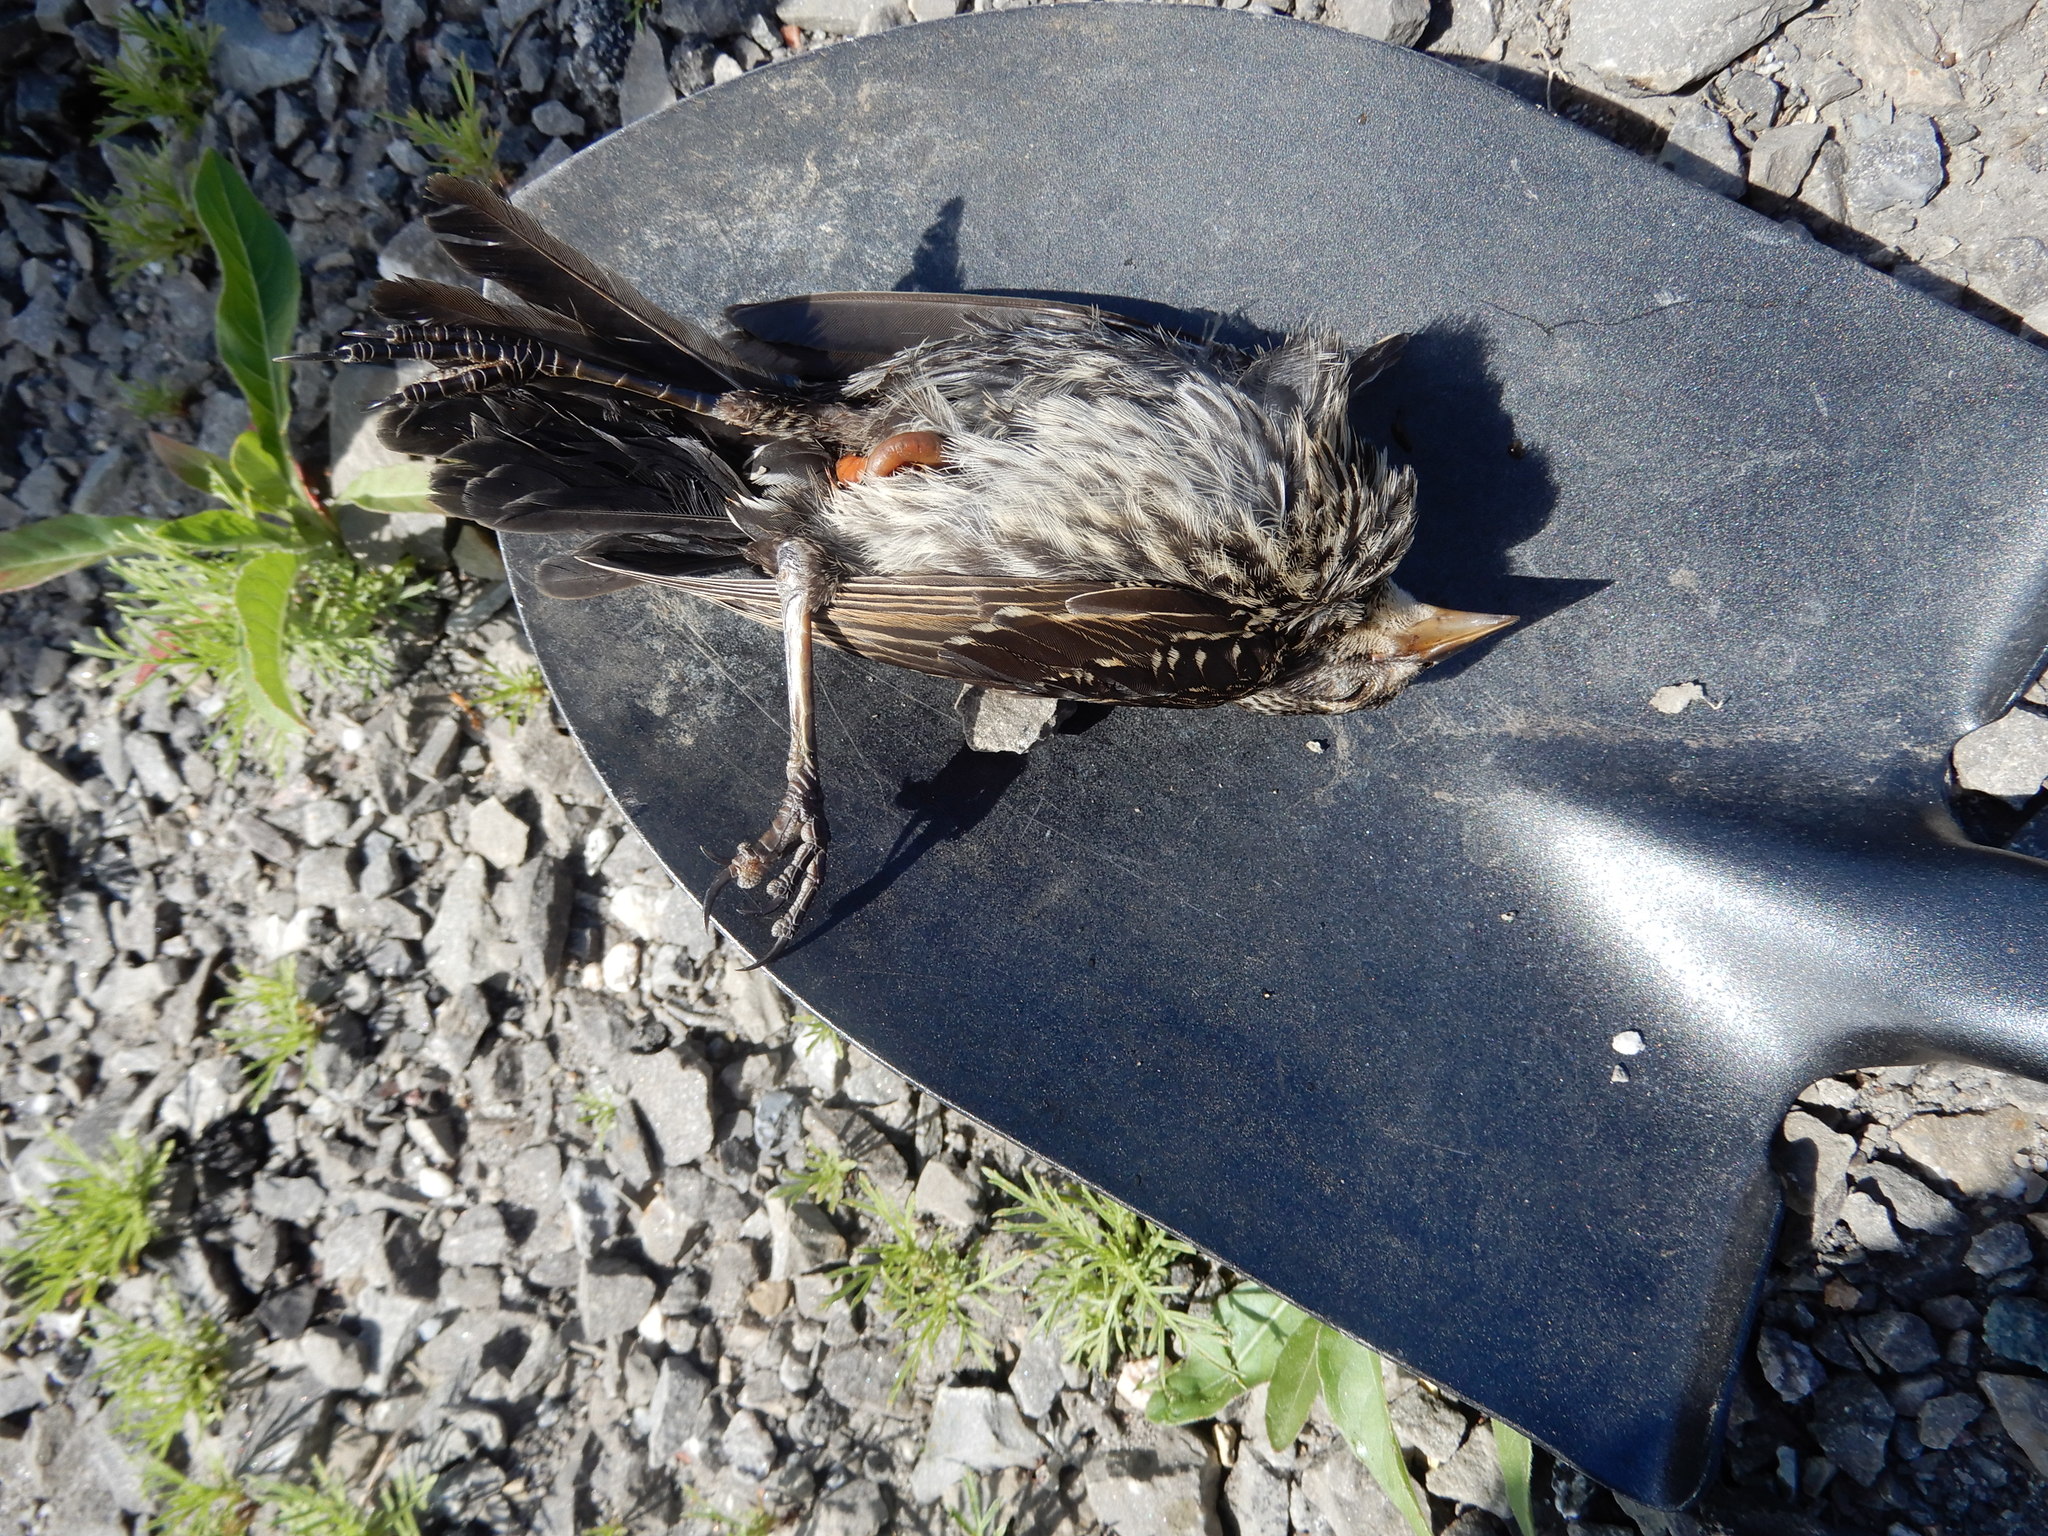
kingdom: Animalia
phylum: Chordata
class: Aves
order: Passeriformes
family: Icteridae
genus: Agelaius
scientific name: Agelaius phoeniceus
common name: Red-winged blackbird
